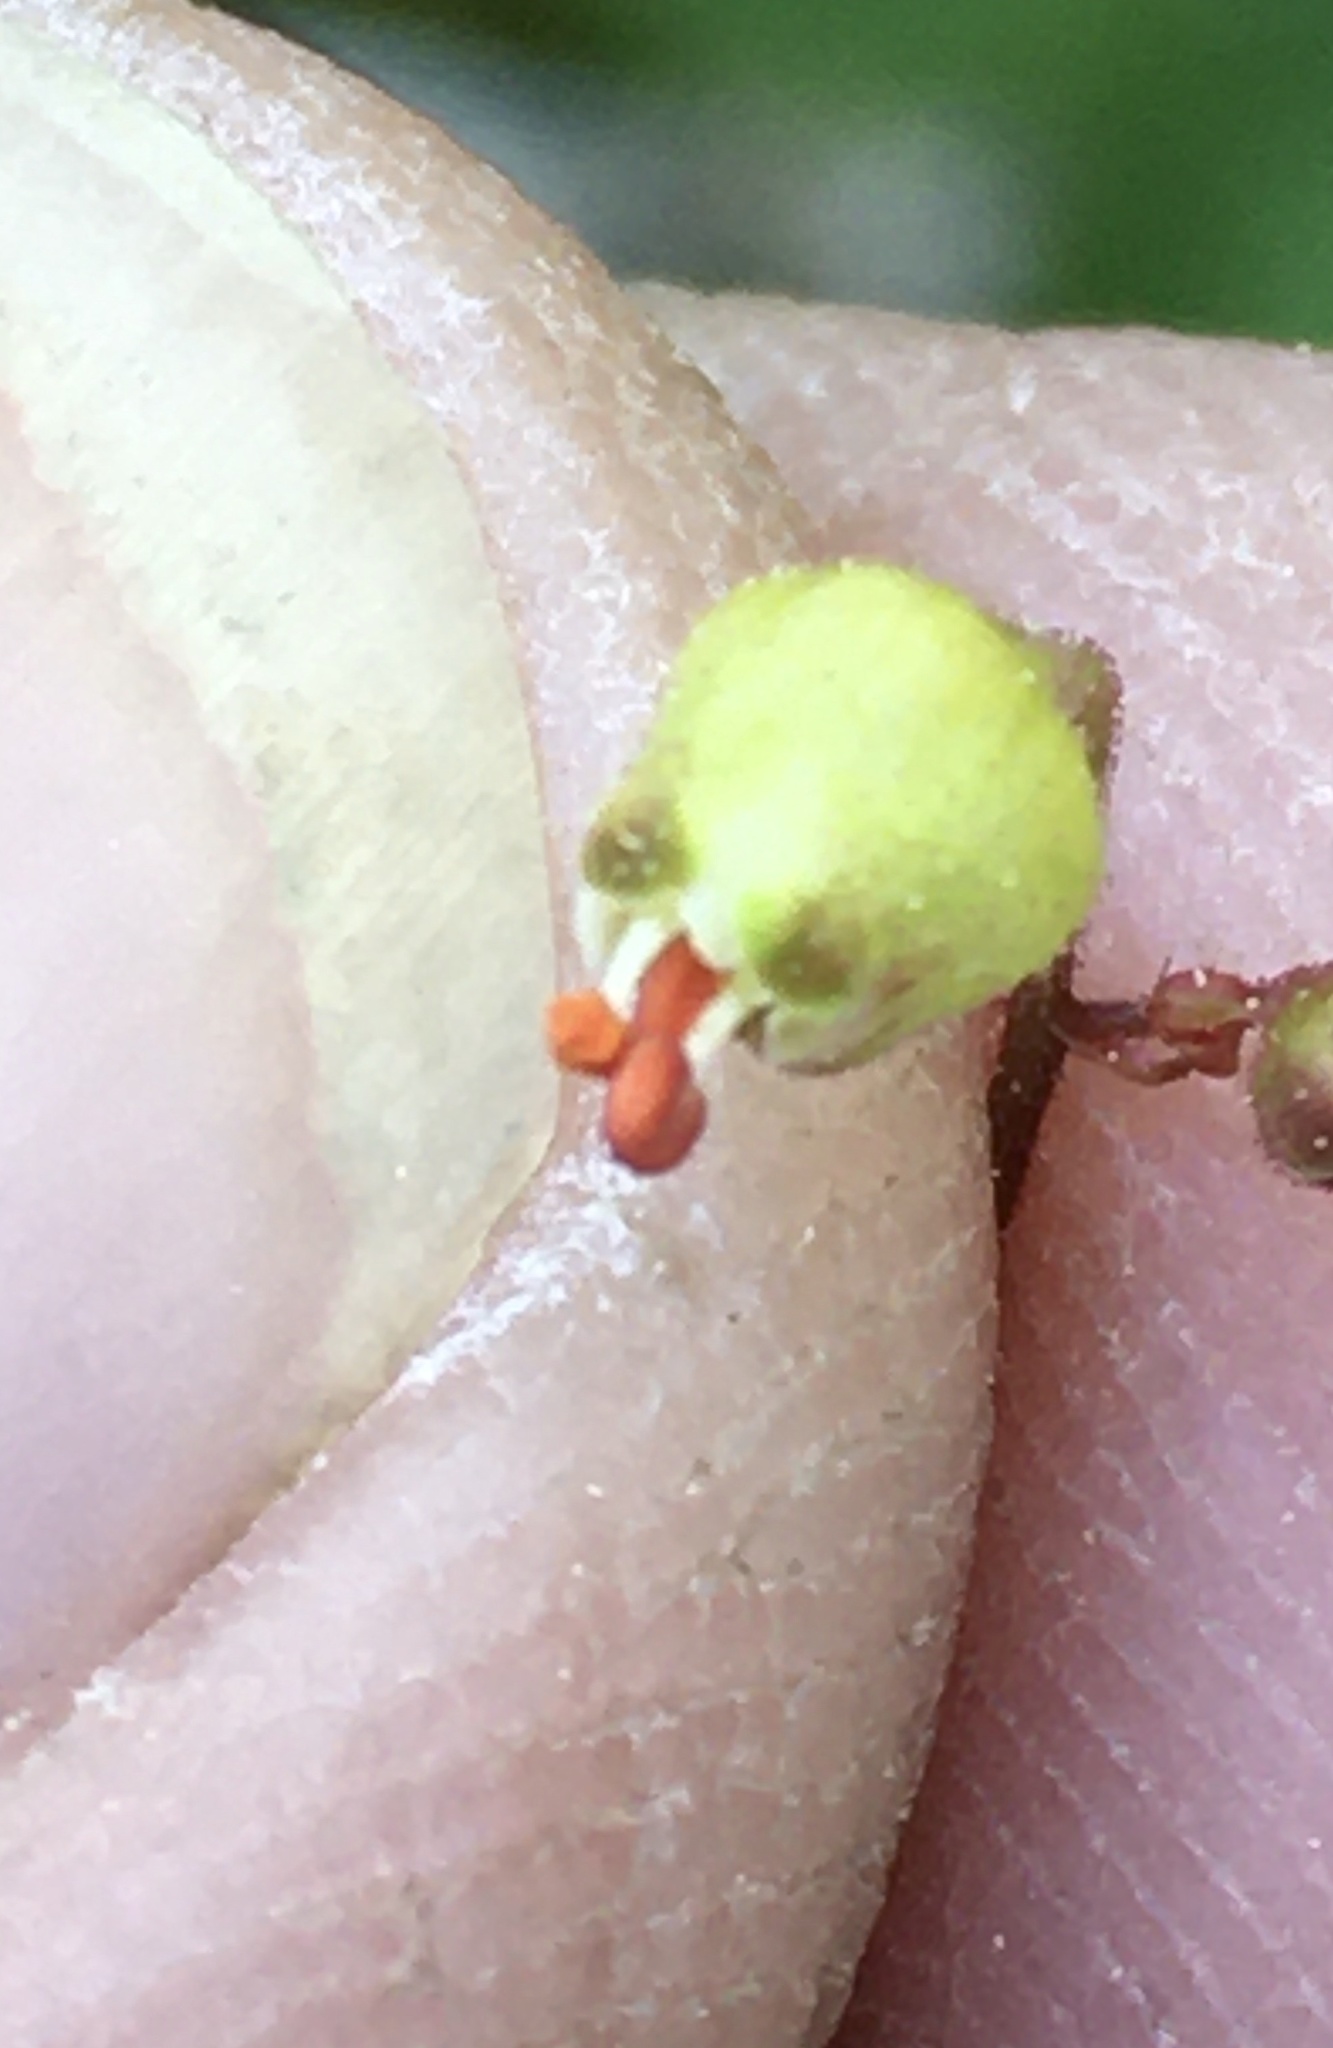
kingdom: Plantae
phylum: Tracheophyta
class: Magnoliopsida
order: Saxifragales
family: Saxifragaceae
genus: Heuchera
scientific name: Heuchera caroliniana
